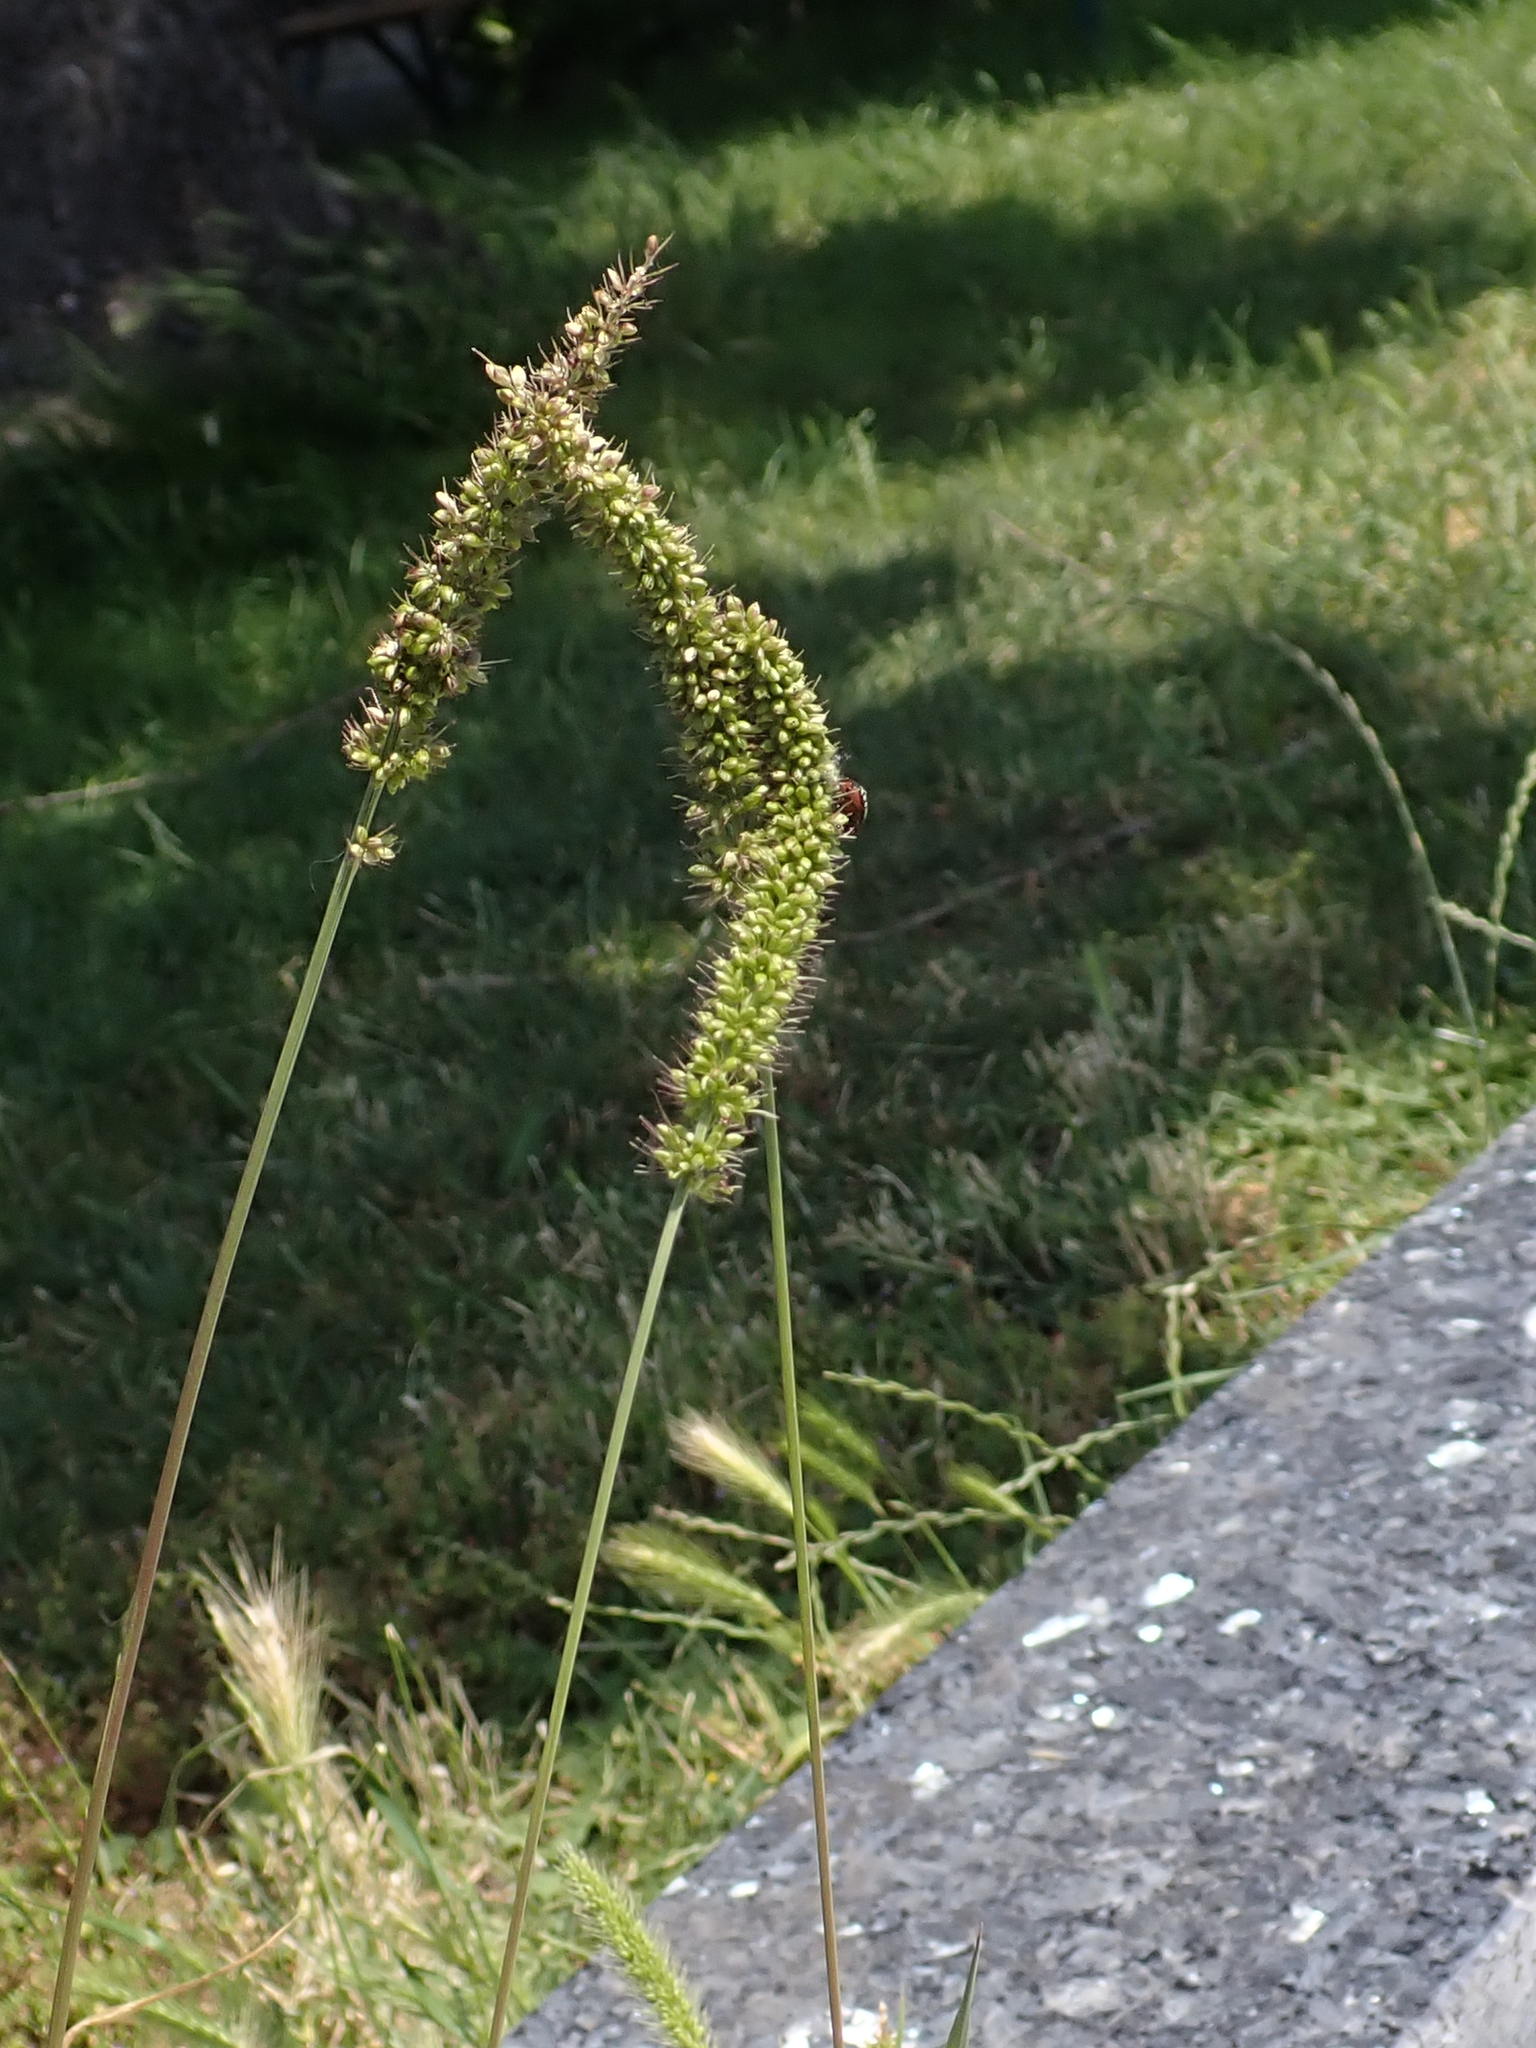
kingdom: Plantae
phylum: Tracheophyta
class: Liliopsida
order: Poales
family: Poaceae
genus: Setaria
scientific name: Setaria verticillata
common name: Hooked bristlegrass
